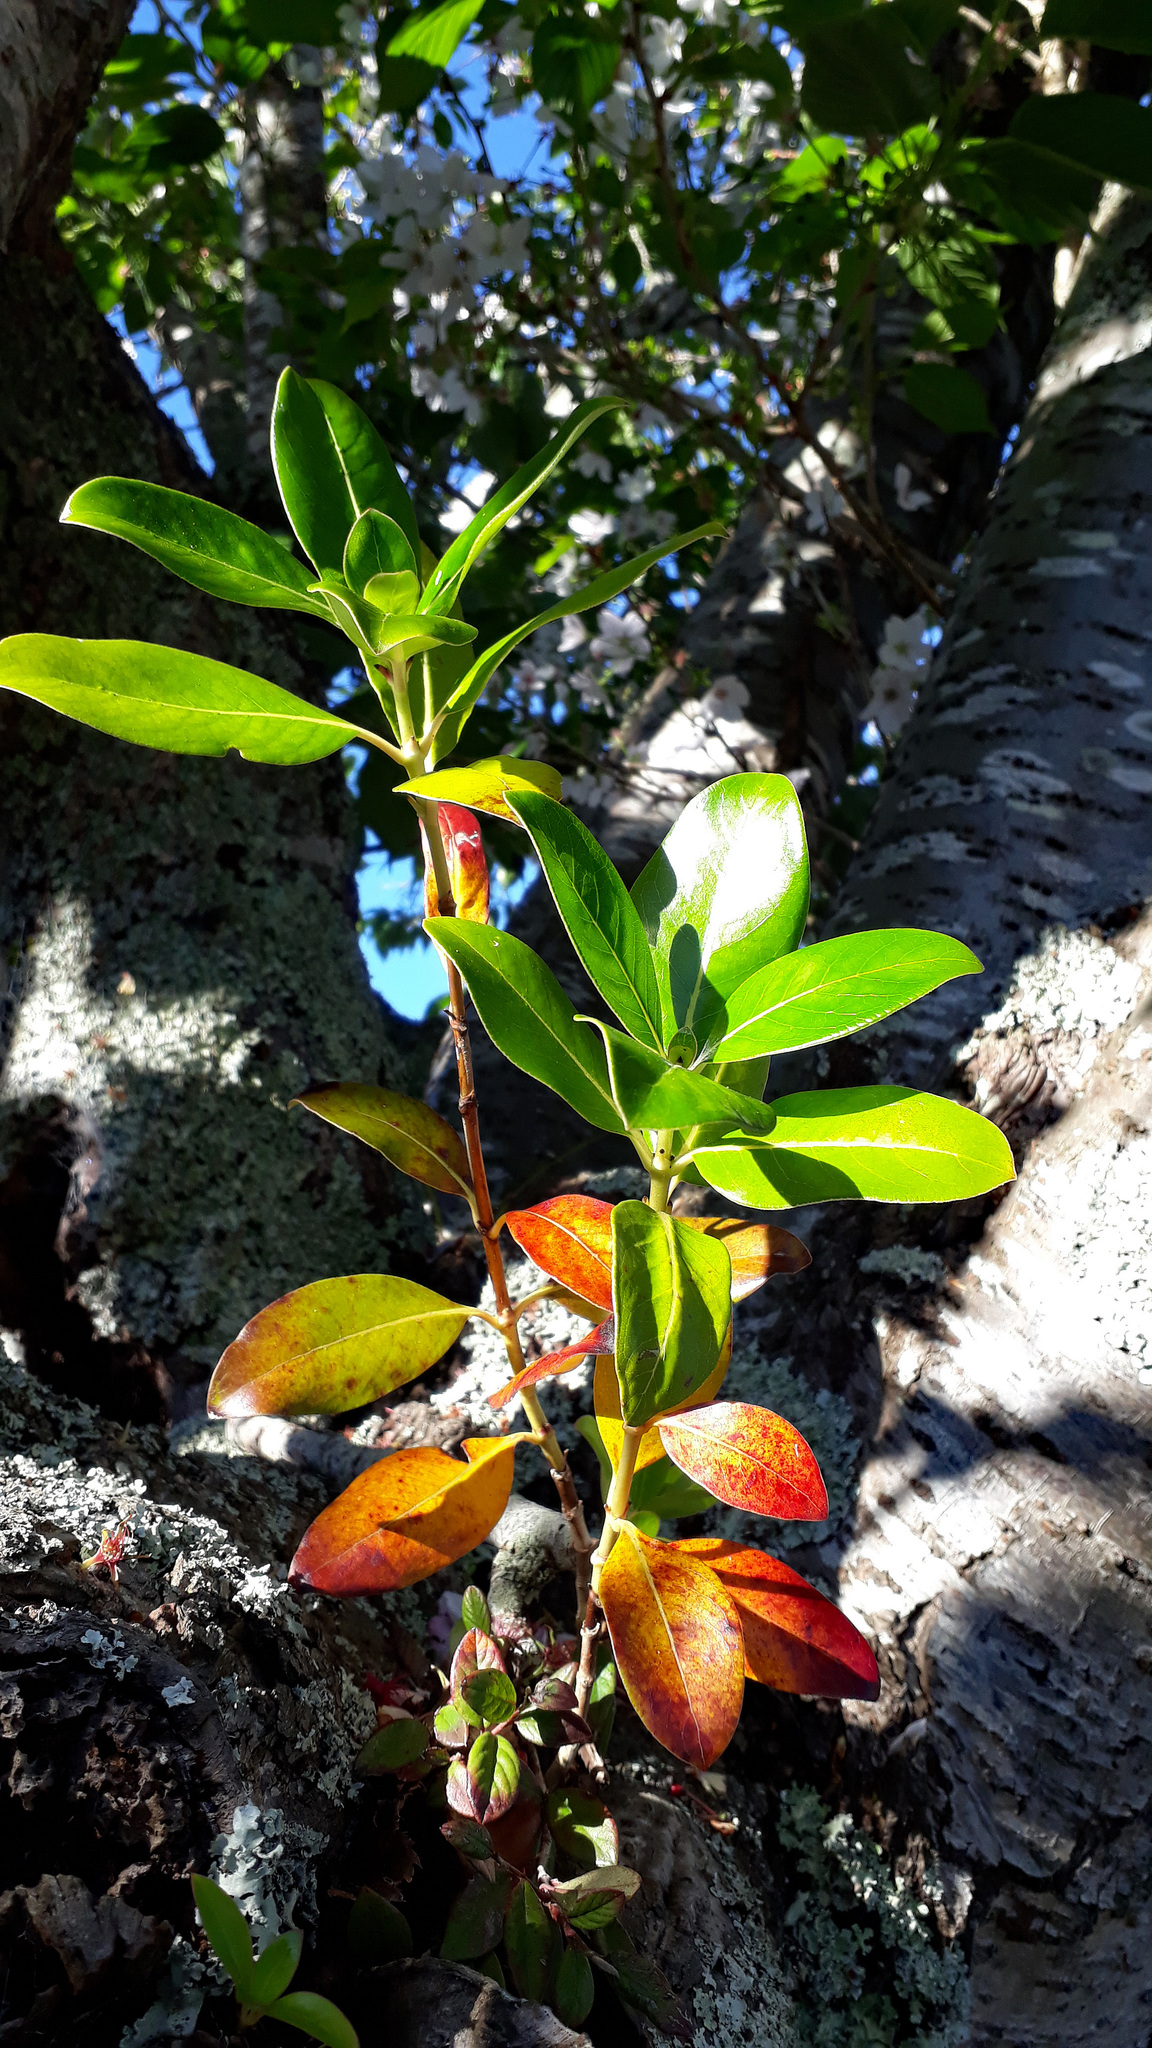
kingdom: Plantae
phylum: Tracheophyta
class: Magnoliopsida
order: Gentianales
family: Rubiaceae
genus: Coprosma
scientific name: Coprosma robusta
